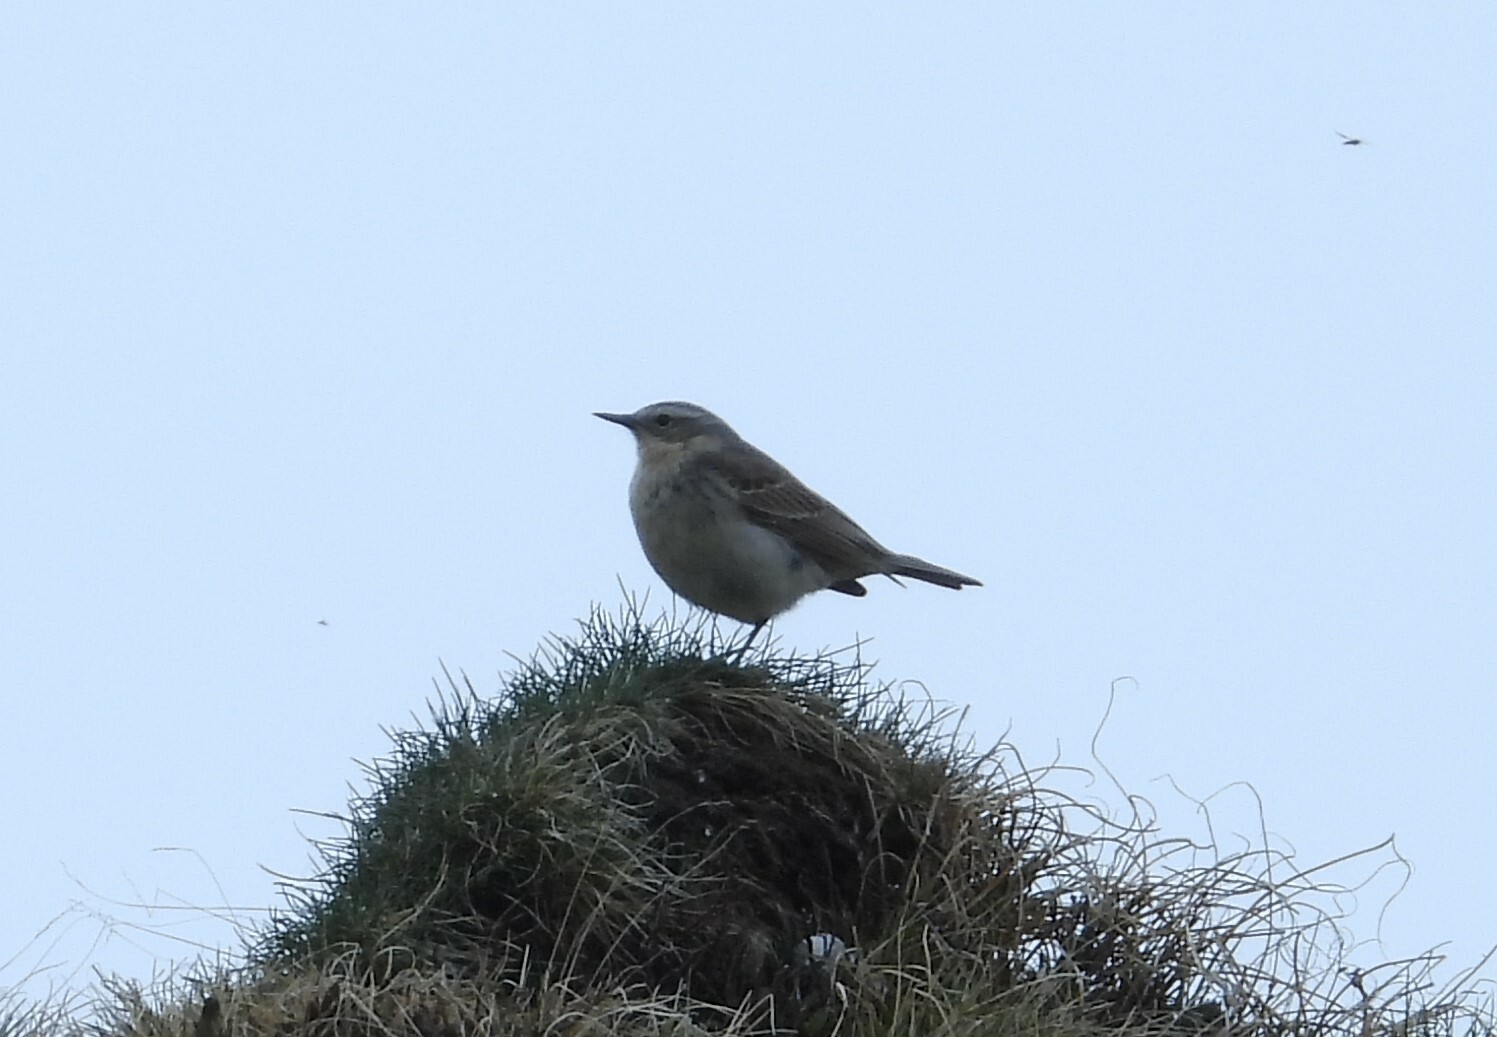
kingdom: Animalia
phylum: Chordata
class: Aves
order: Passeriformes
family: Motacillidae
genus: Anthus
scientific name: Anthus spinoletta
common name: Water pipit
